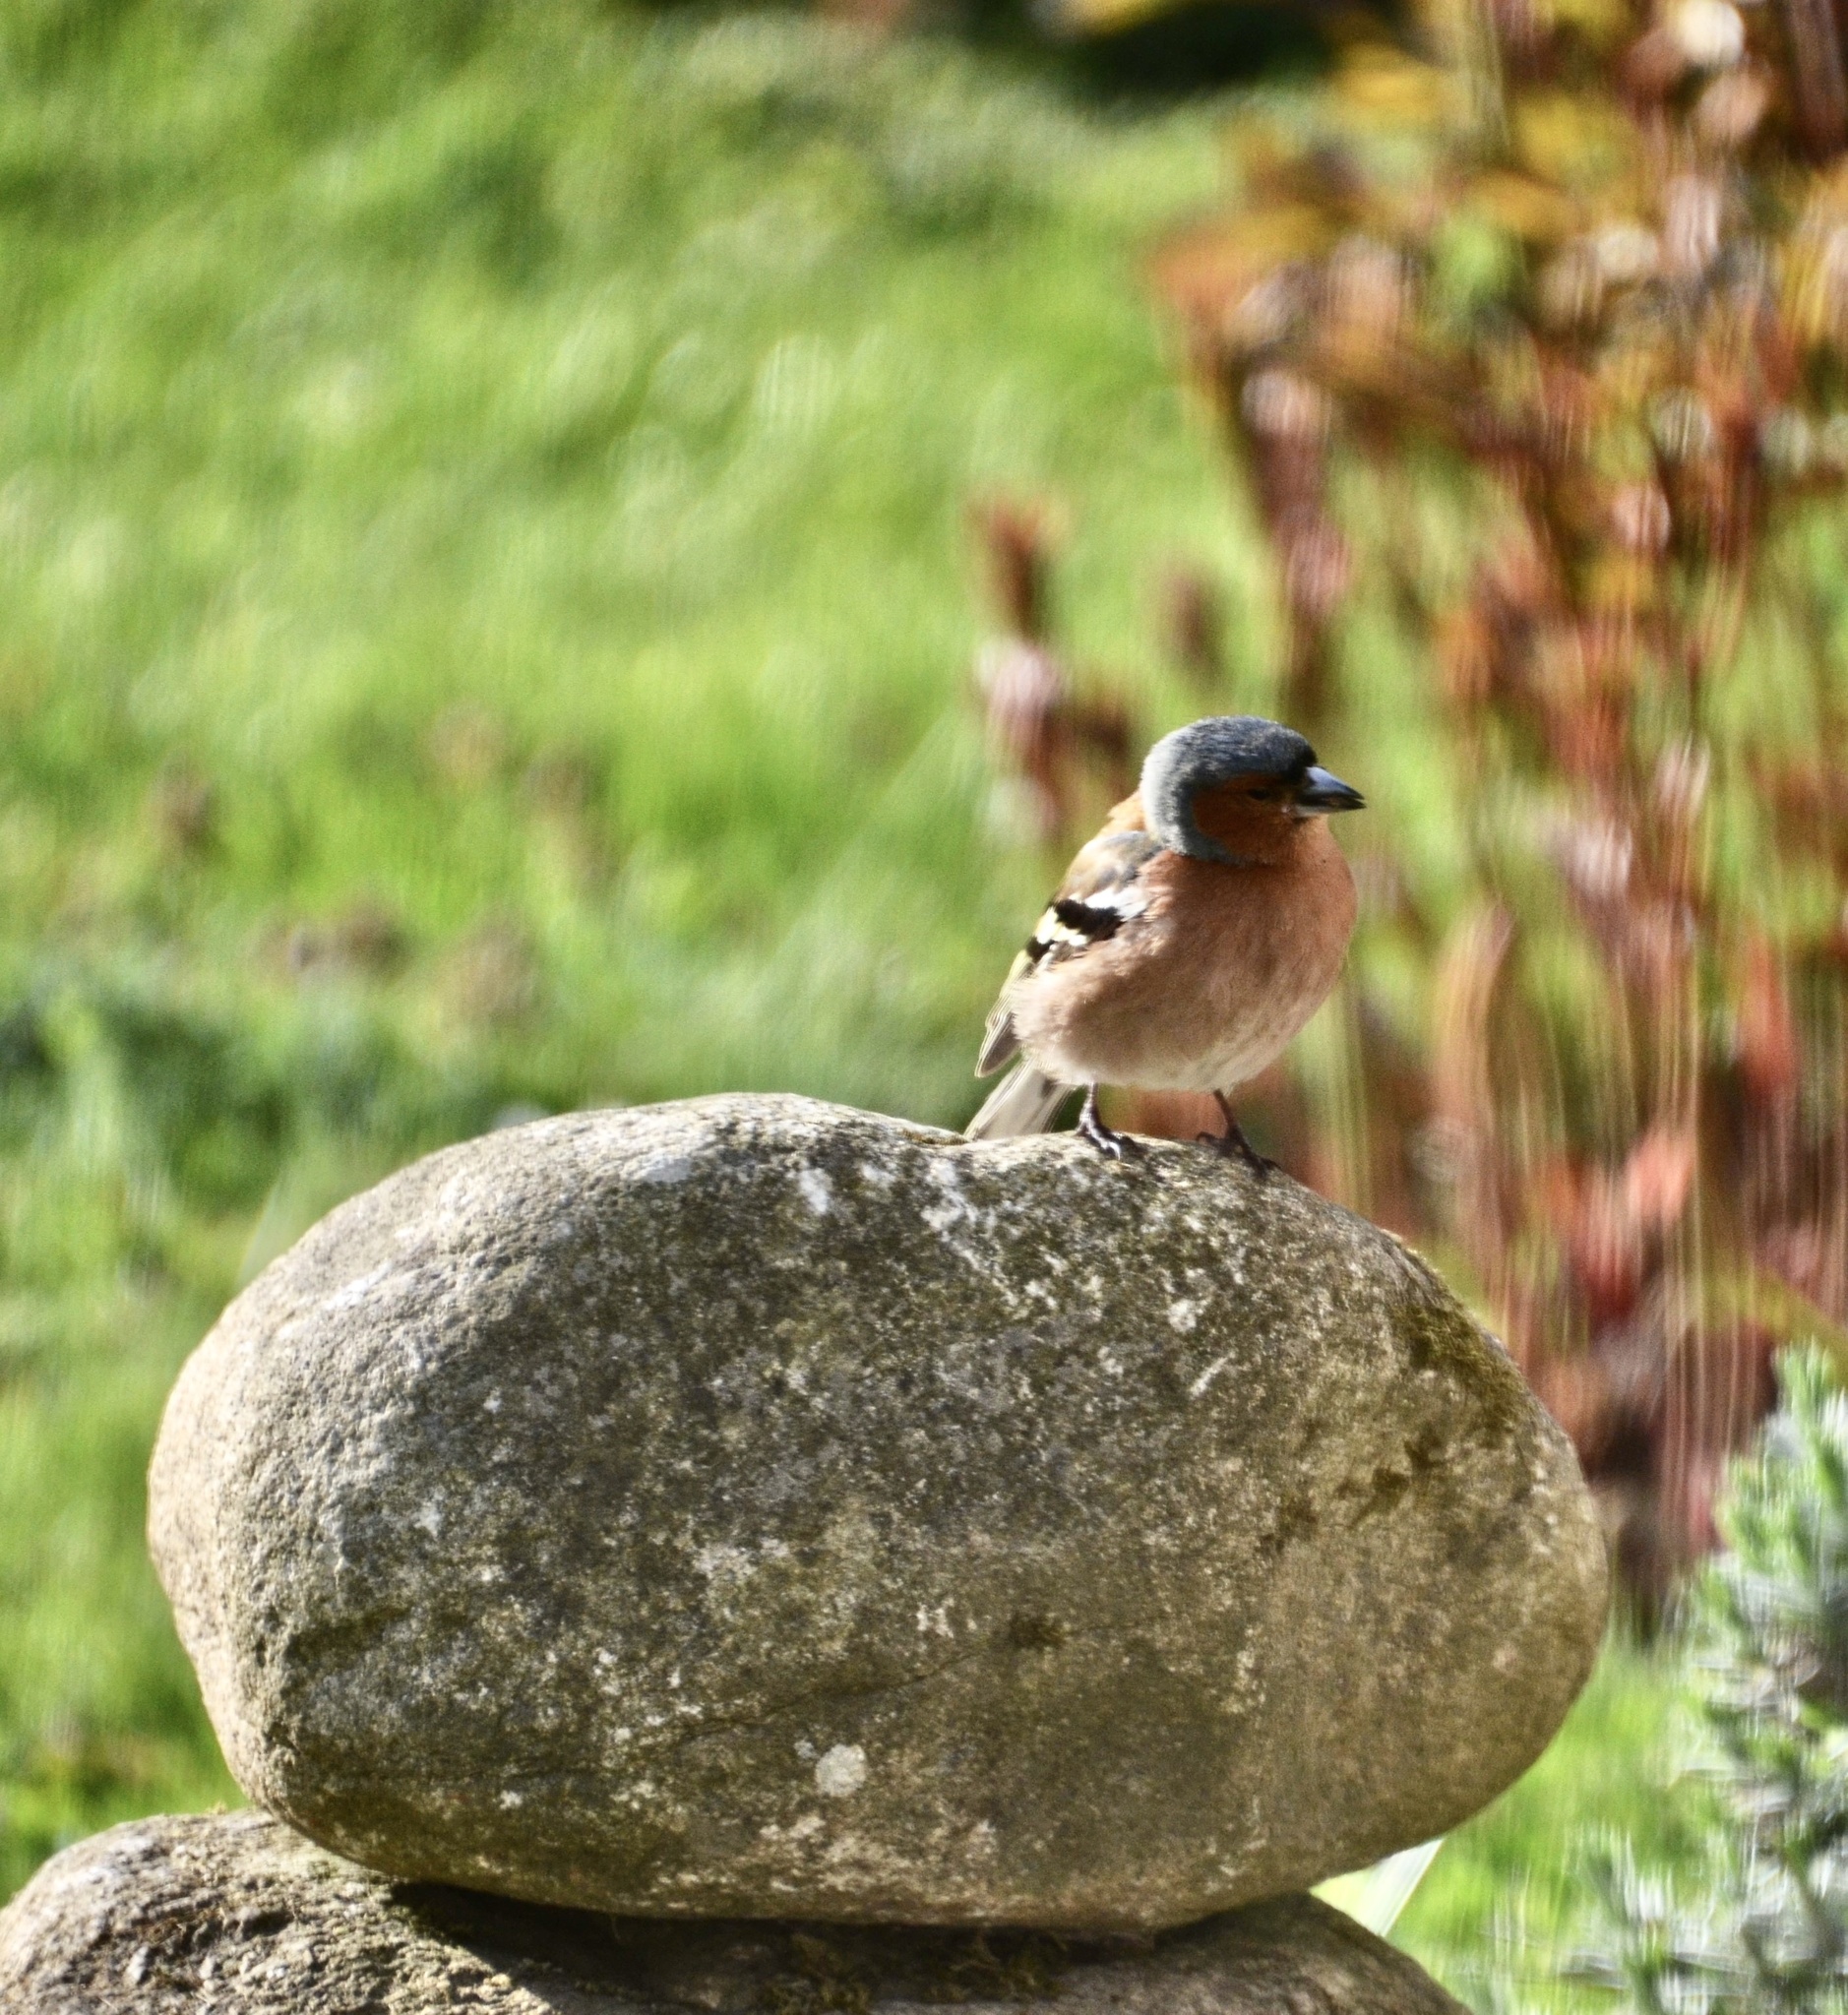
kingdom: Animalia
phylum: Chordata
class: Aves
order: Passeriformes
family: Fringillidae
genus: Fringilla
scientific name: Fringilla coelebs
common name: Common chaffinch
